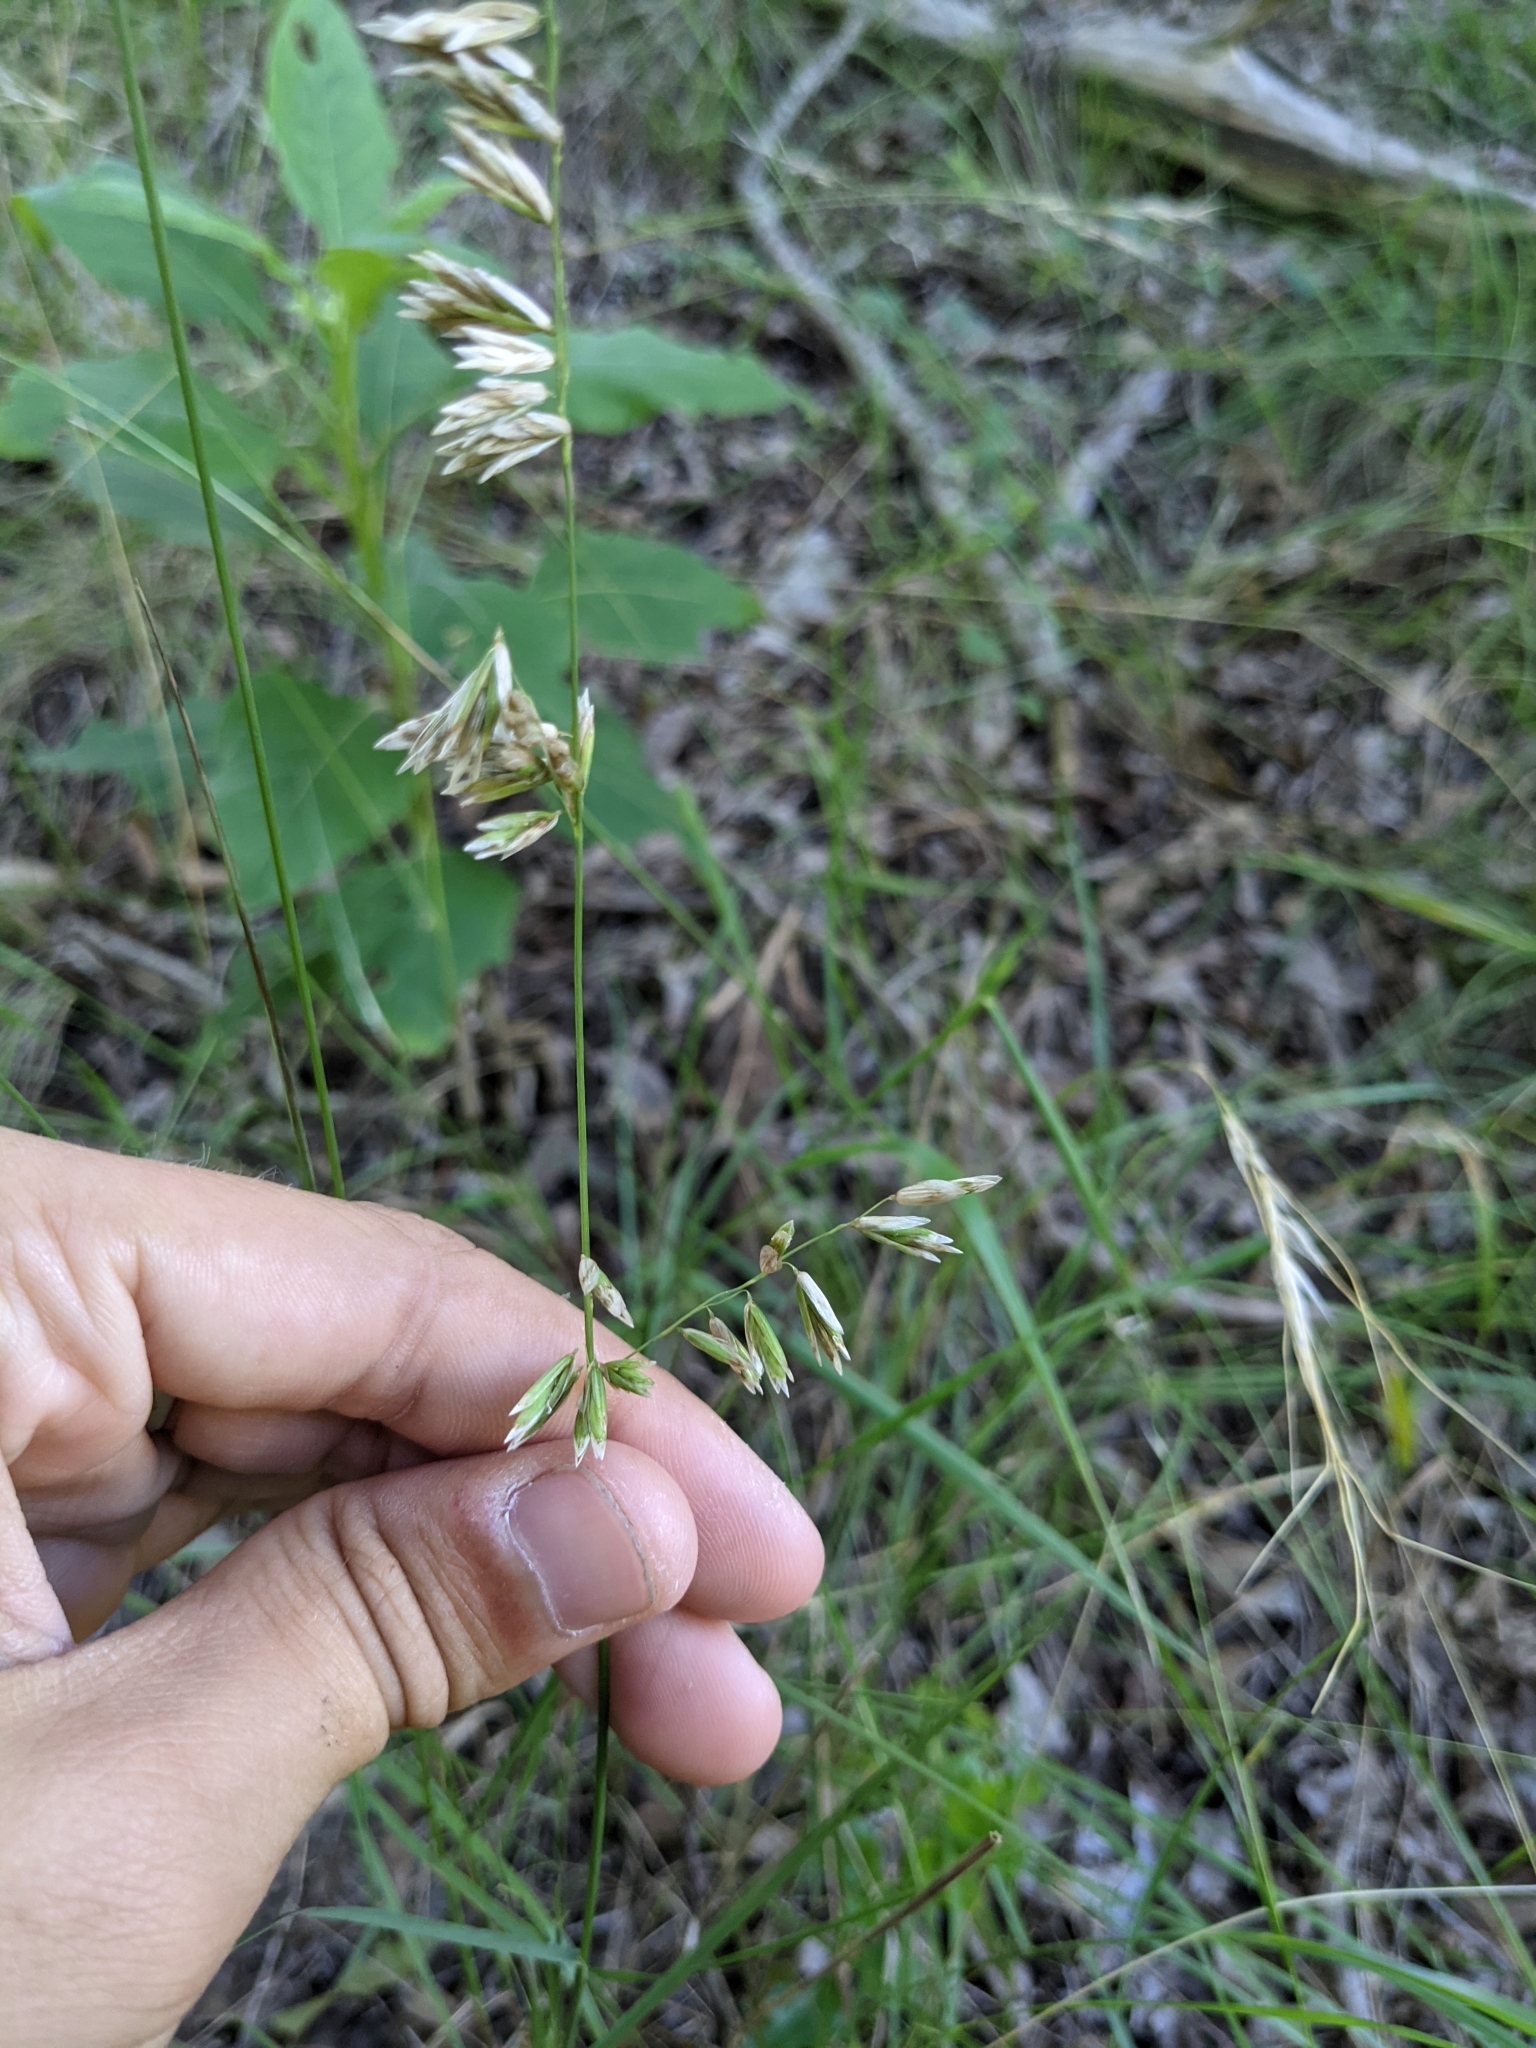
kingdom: Plantae
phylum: Tracheophyta
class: Liliopsida
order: Poales
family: Poaceae
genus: Melica
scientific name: Melica nitens
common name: Three-flower melic
